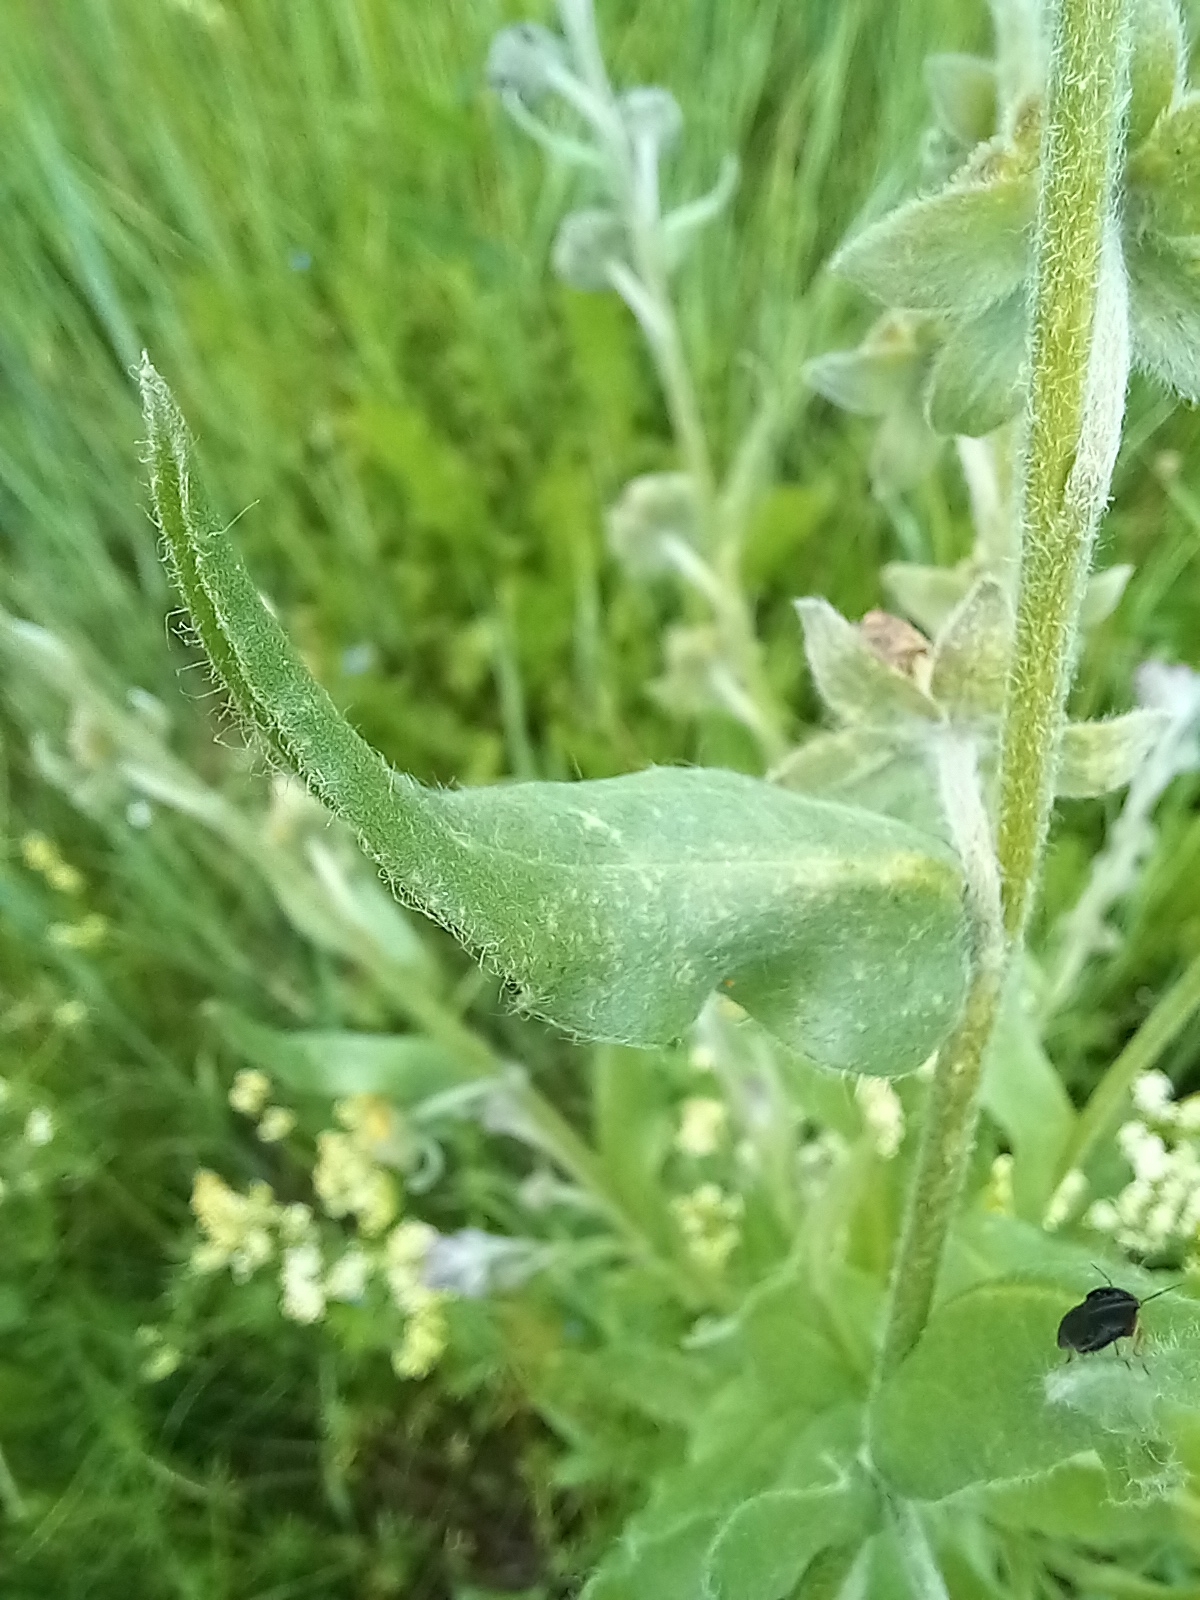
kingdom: Plantae
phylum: Tracheophyta
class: Magnoliopsida
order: Boraginales
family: Boraginaceae
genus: Cynoglossum
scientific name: Cynoglossum officinale
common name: Hound's-tongue
